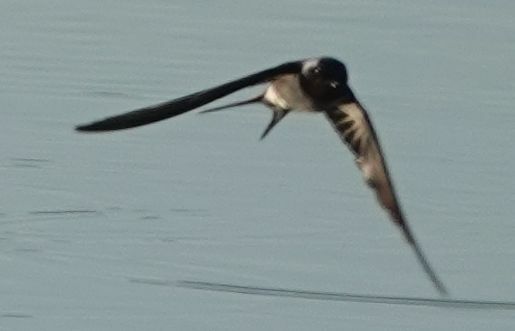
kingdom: Animalia
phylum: Chordata
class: Aves
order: Passeriformes
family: Hirundinidae
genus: Hirundo
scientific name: Hirundo rustica
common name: Barn swallow
